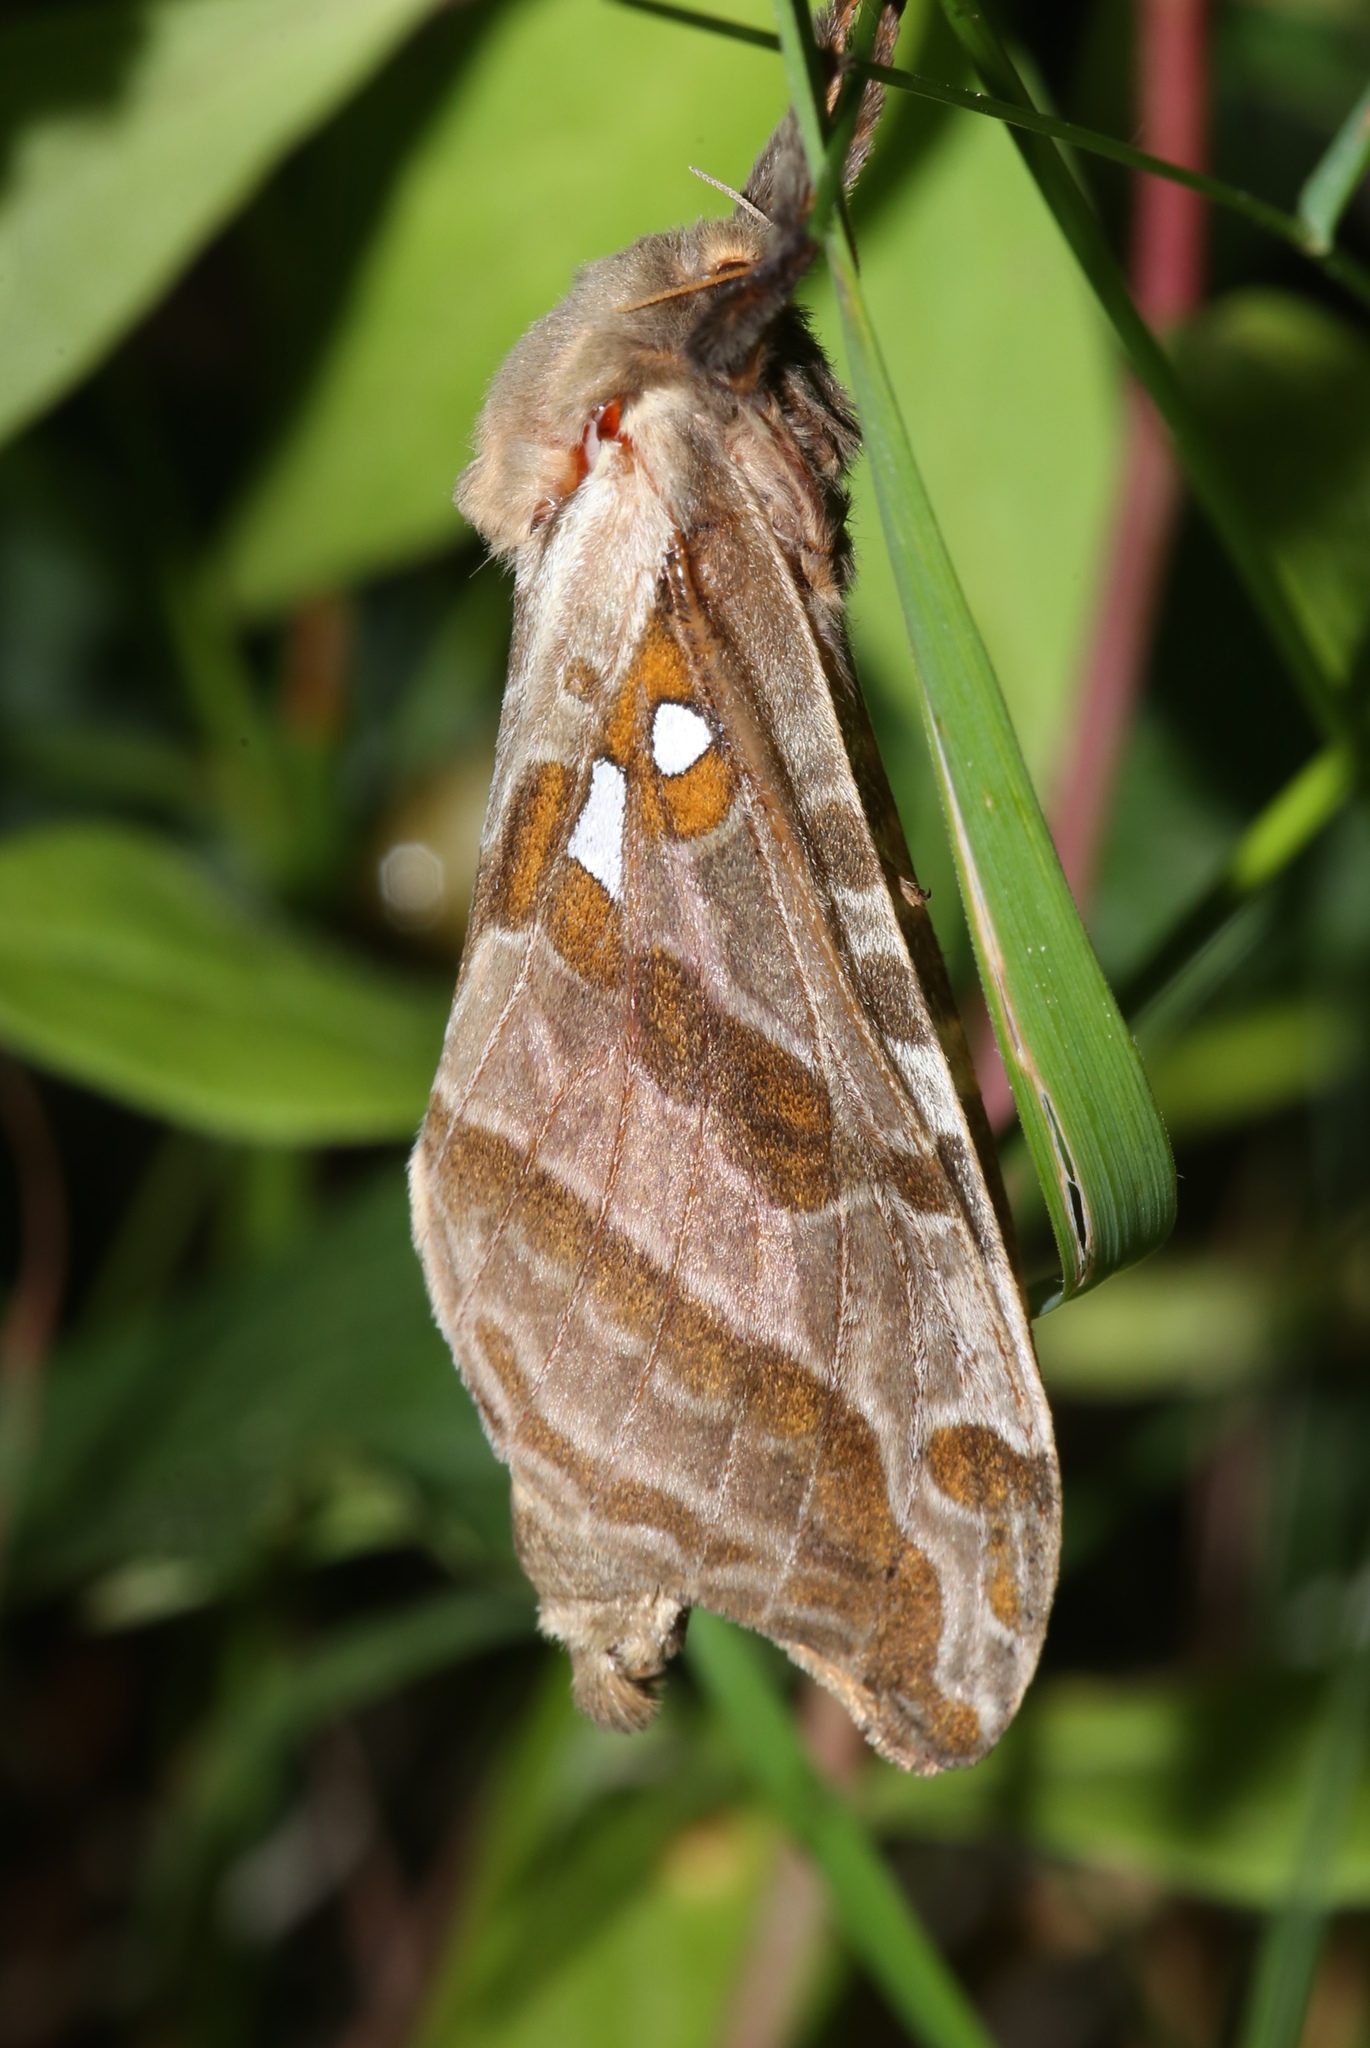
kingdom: Animalia
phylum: Arthropoda
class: Insecta
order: Lepidoptera
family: Hepialidae
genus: Sthenopis
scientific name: Sthenopis argenteomaculatus
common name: Silver-spotted ghost moth
